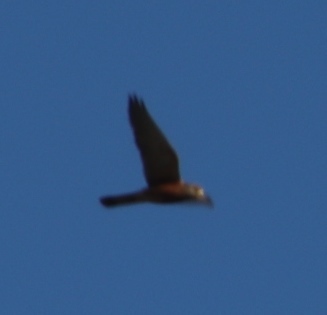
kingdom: Animalia
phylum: Chordata
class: Aves
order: Falconiformes
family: Falconidae
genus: Falco
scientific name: Falco rupicolus
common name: Rock kestrel
